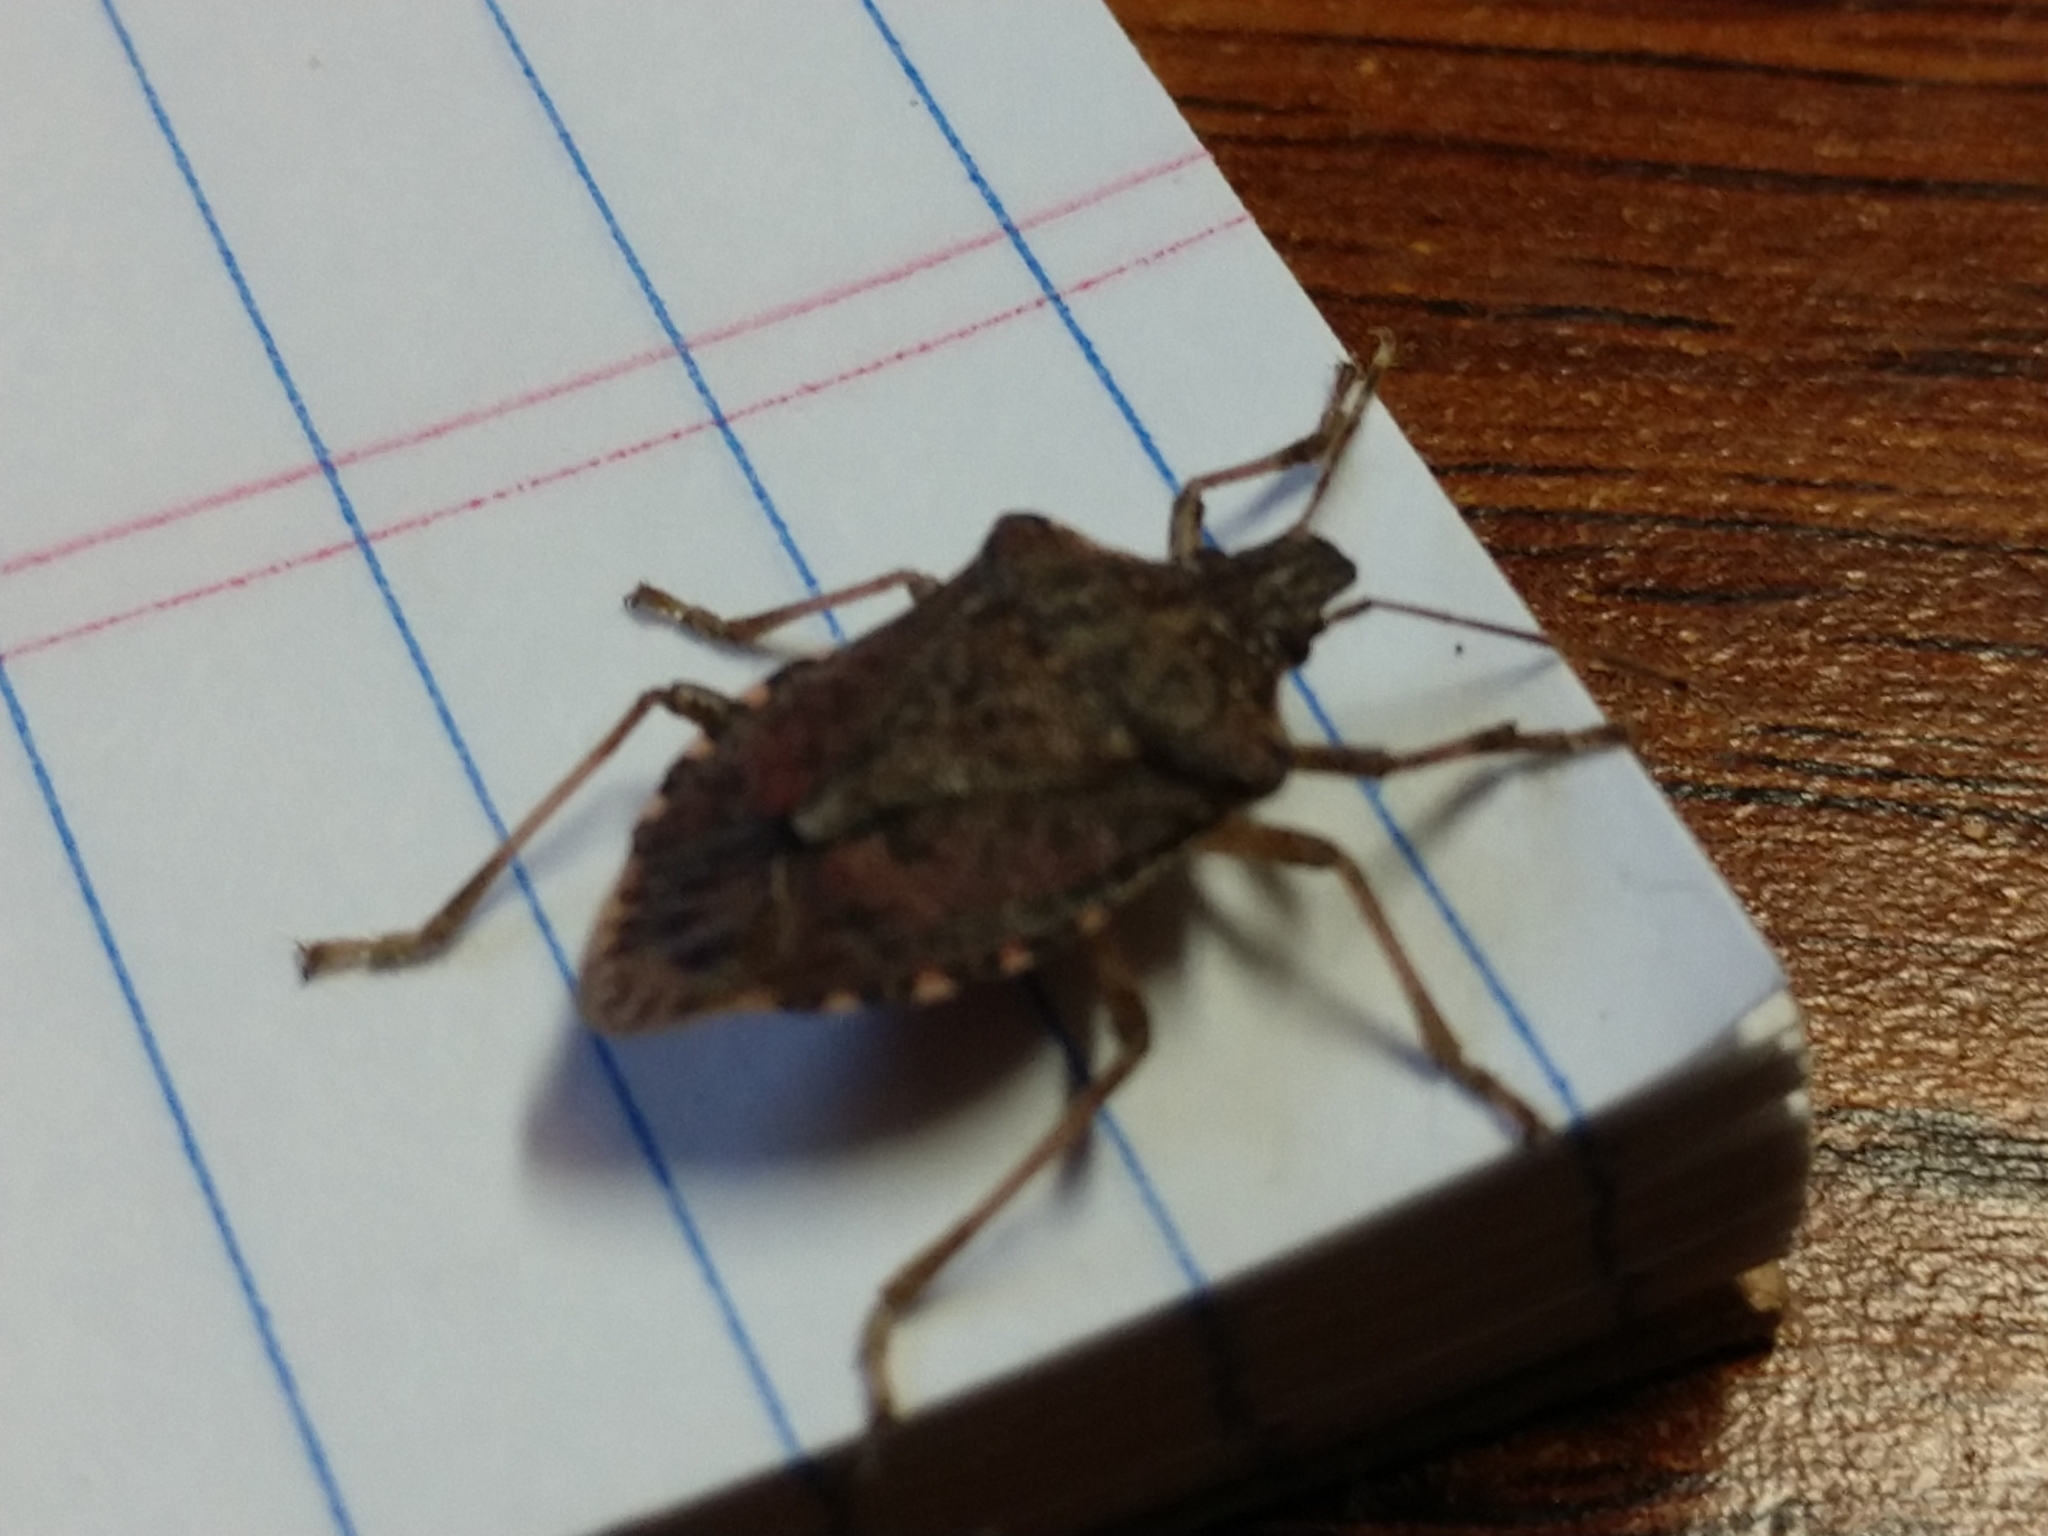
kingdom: Animalia
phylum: Arthropoda
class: Insecta
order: Hemiptera
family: Pentatomidae
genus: Halyomorpha
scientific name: Halyomorpha halys
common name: Brown marmorated stink bug
